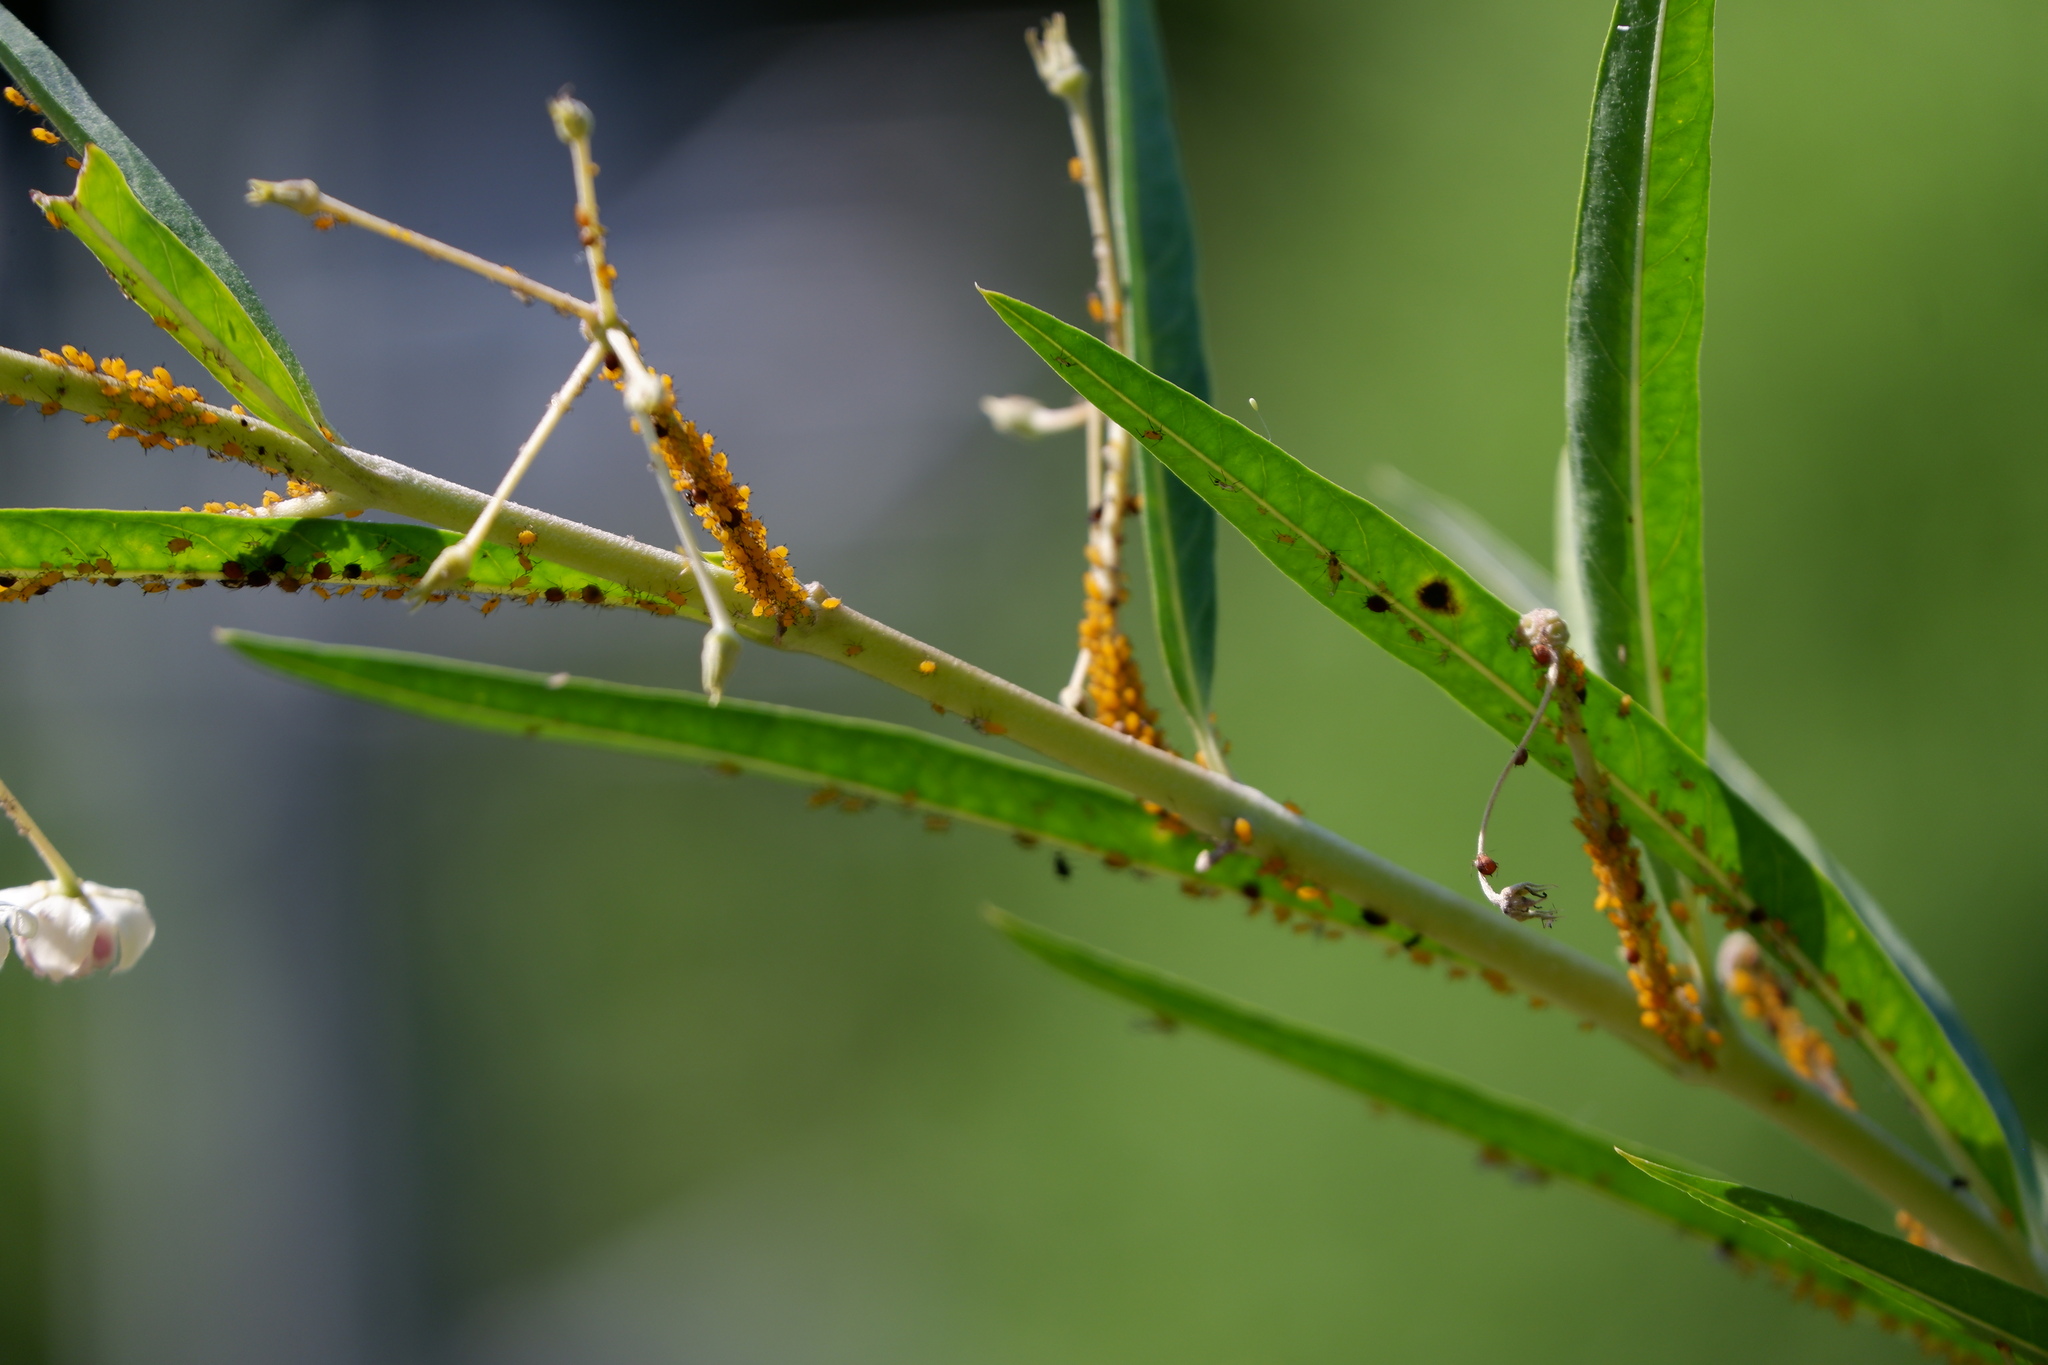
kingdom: Animalia
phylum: Arthropoda
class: Insecta
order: Hemiptera
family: Aphididae
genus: Aphis
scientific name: Aphis nerii
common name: Oleander aphid
